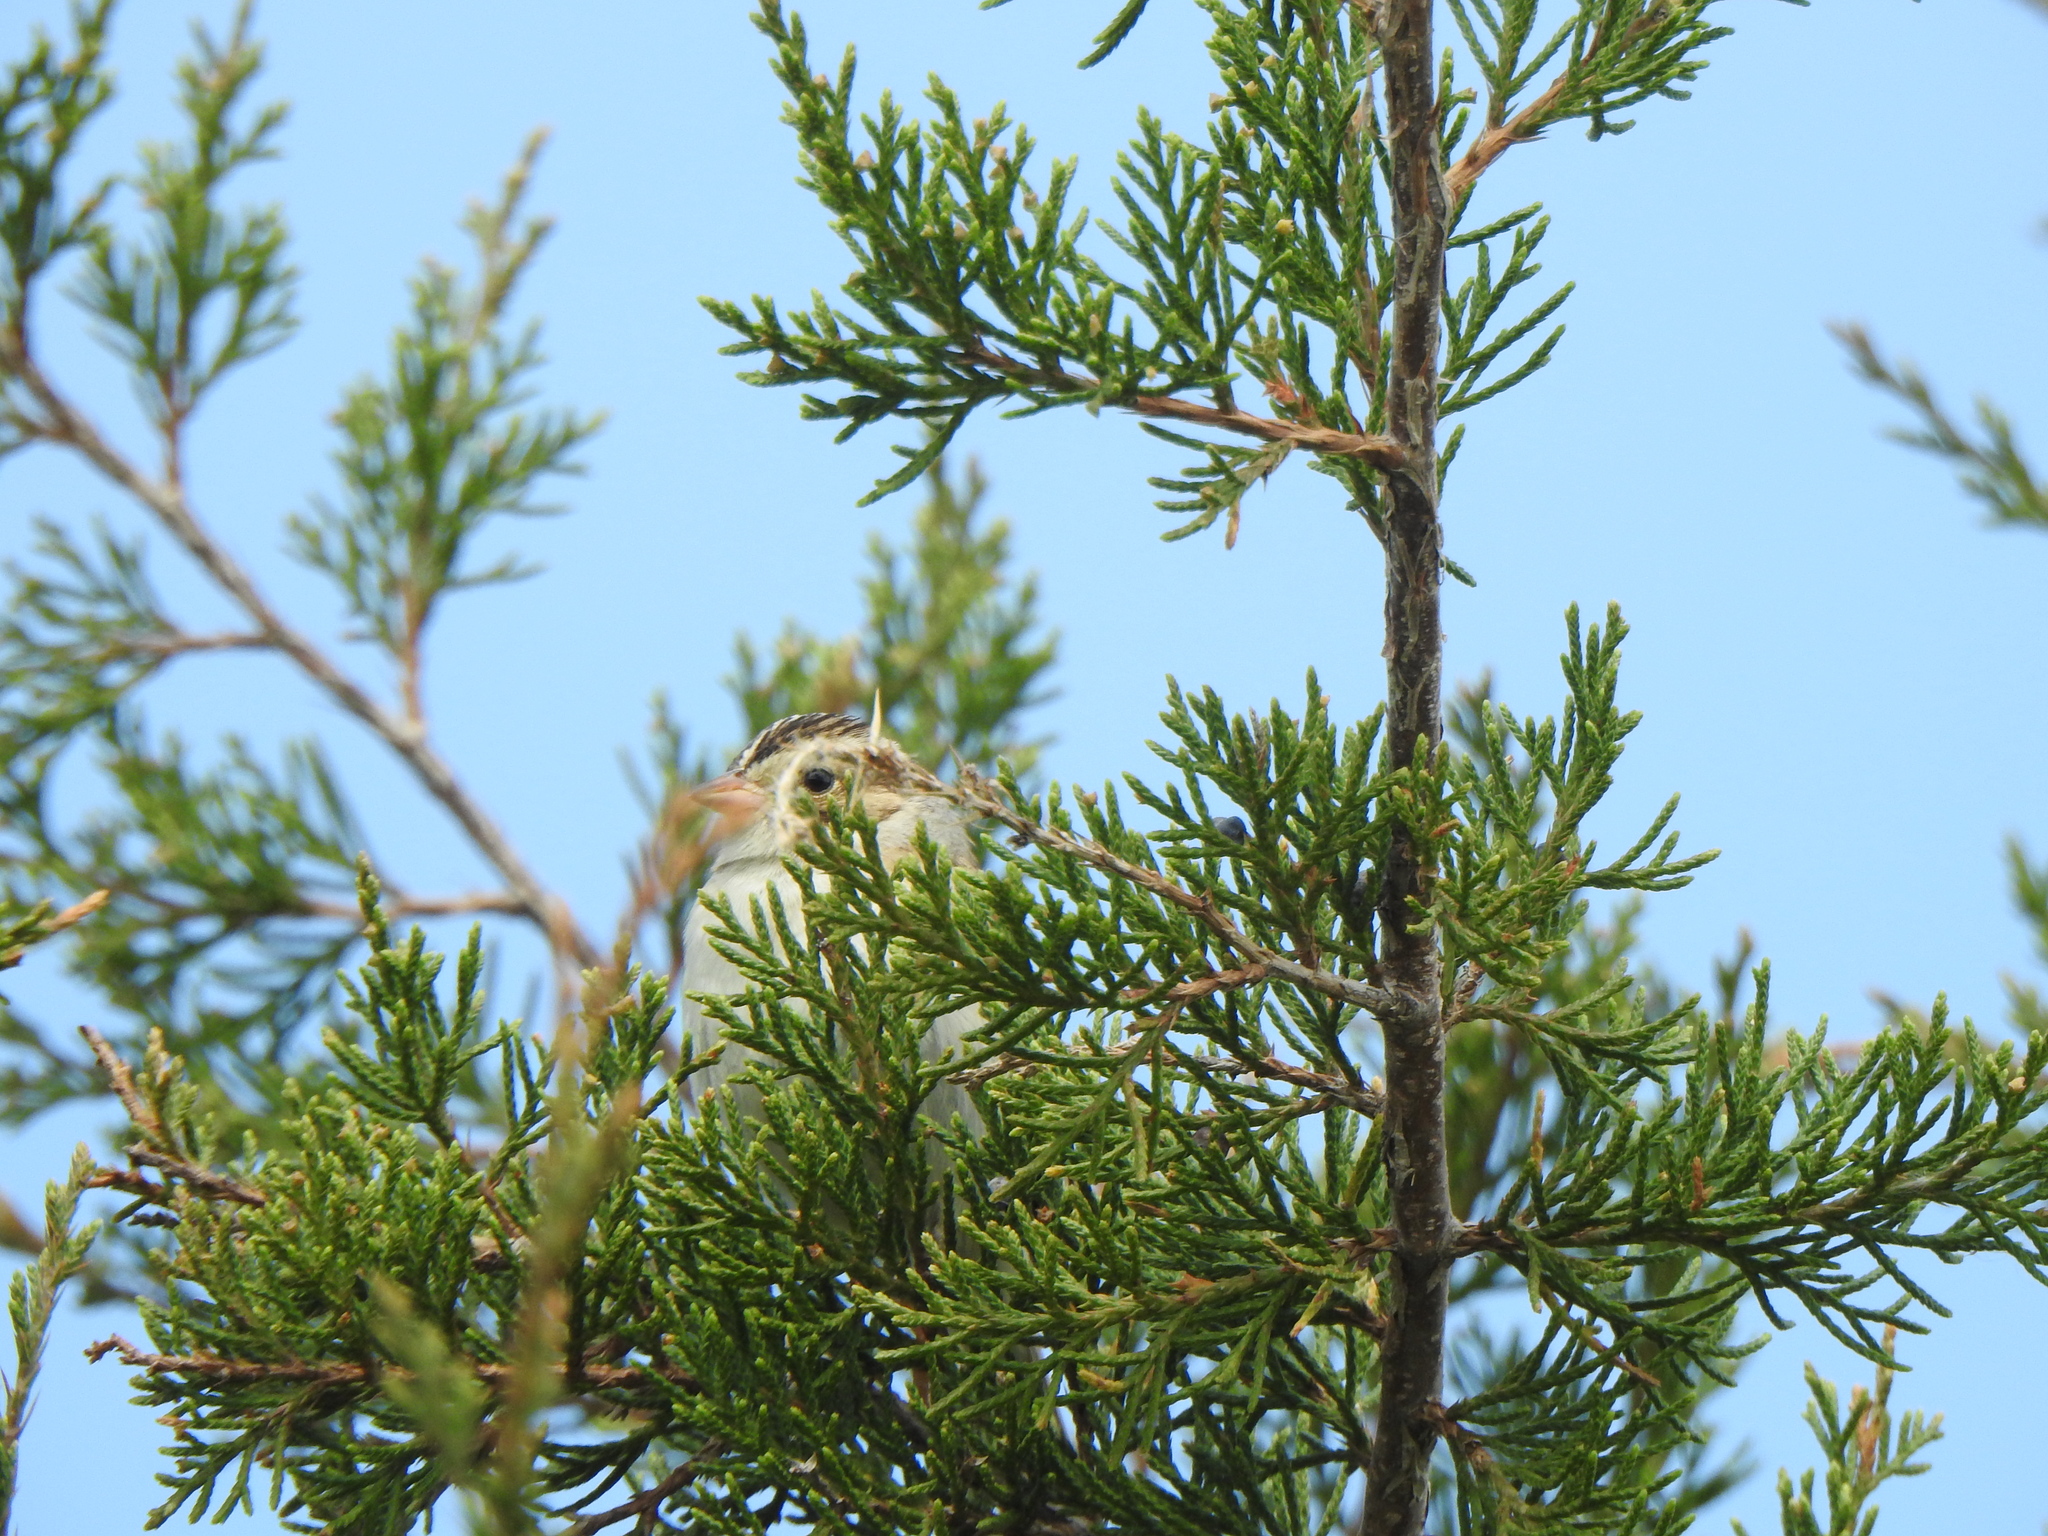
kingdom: Animalia
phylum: Chordata
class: Aves
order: Passeriformes
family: Passerellidae
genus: Spizella
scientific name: Spizella pallida
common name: Clay-colored sparrow
